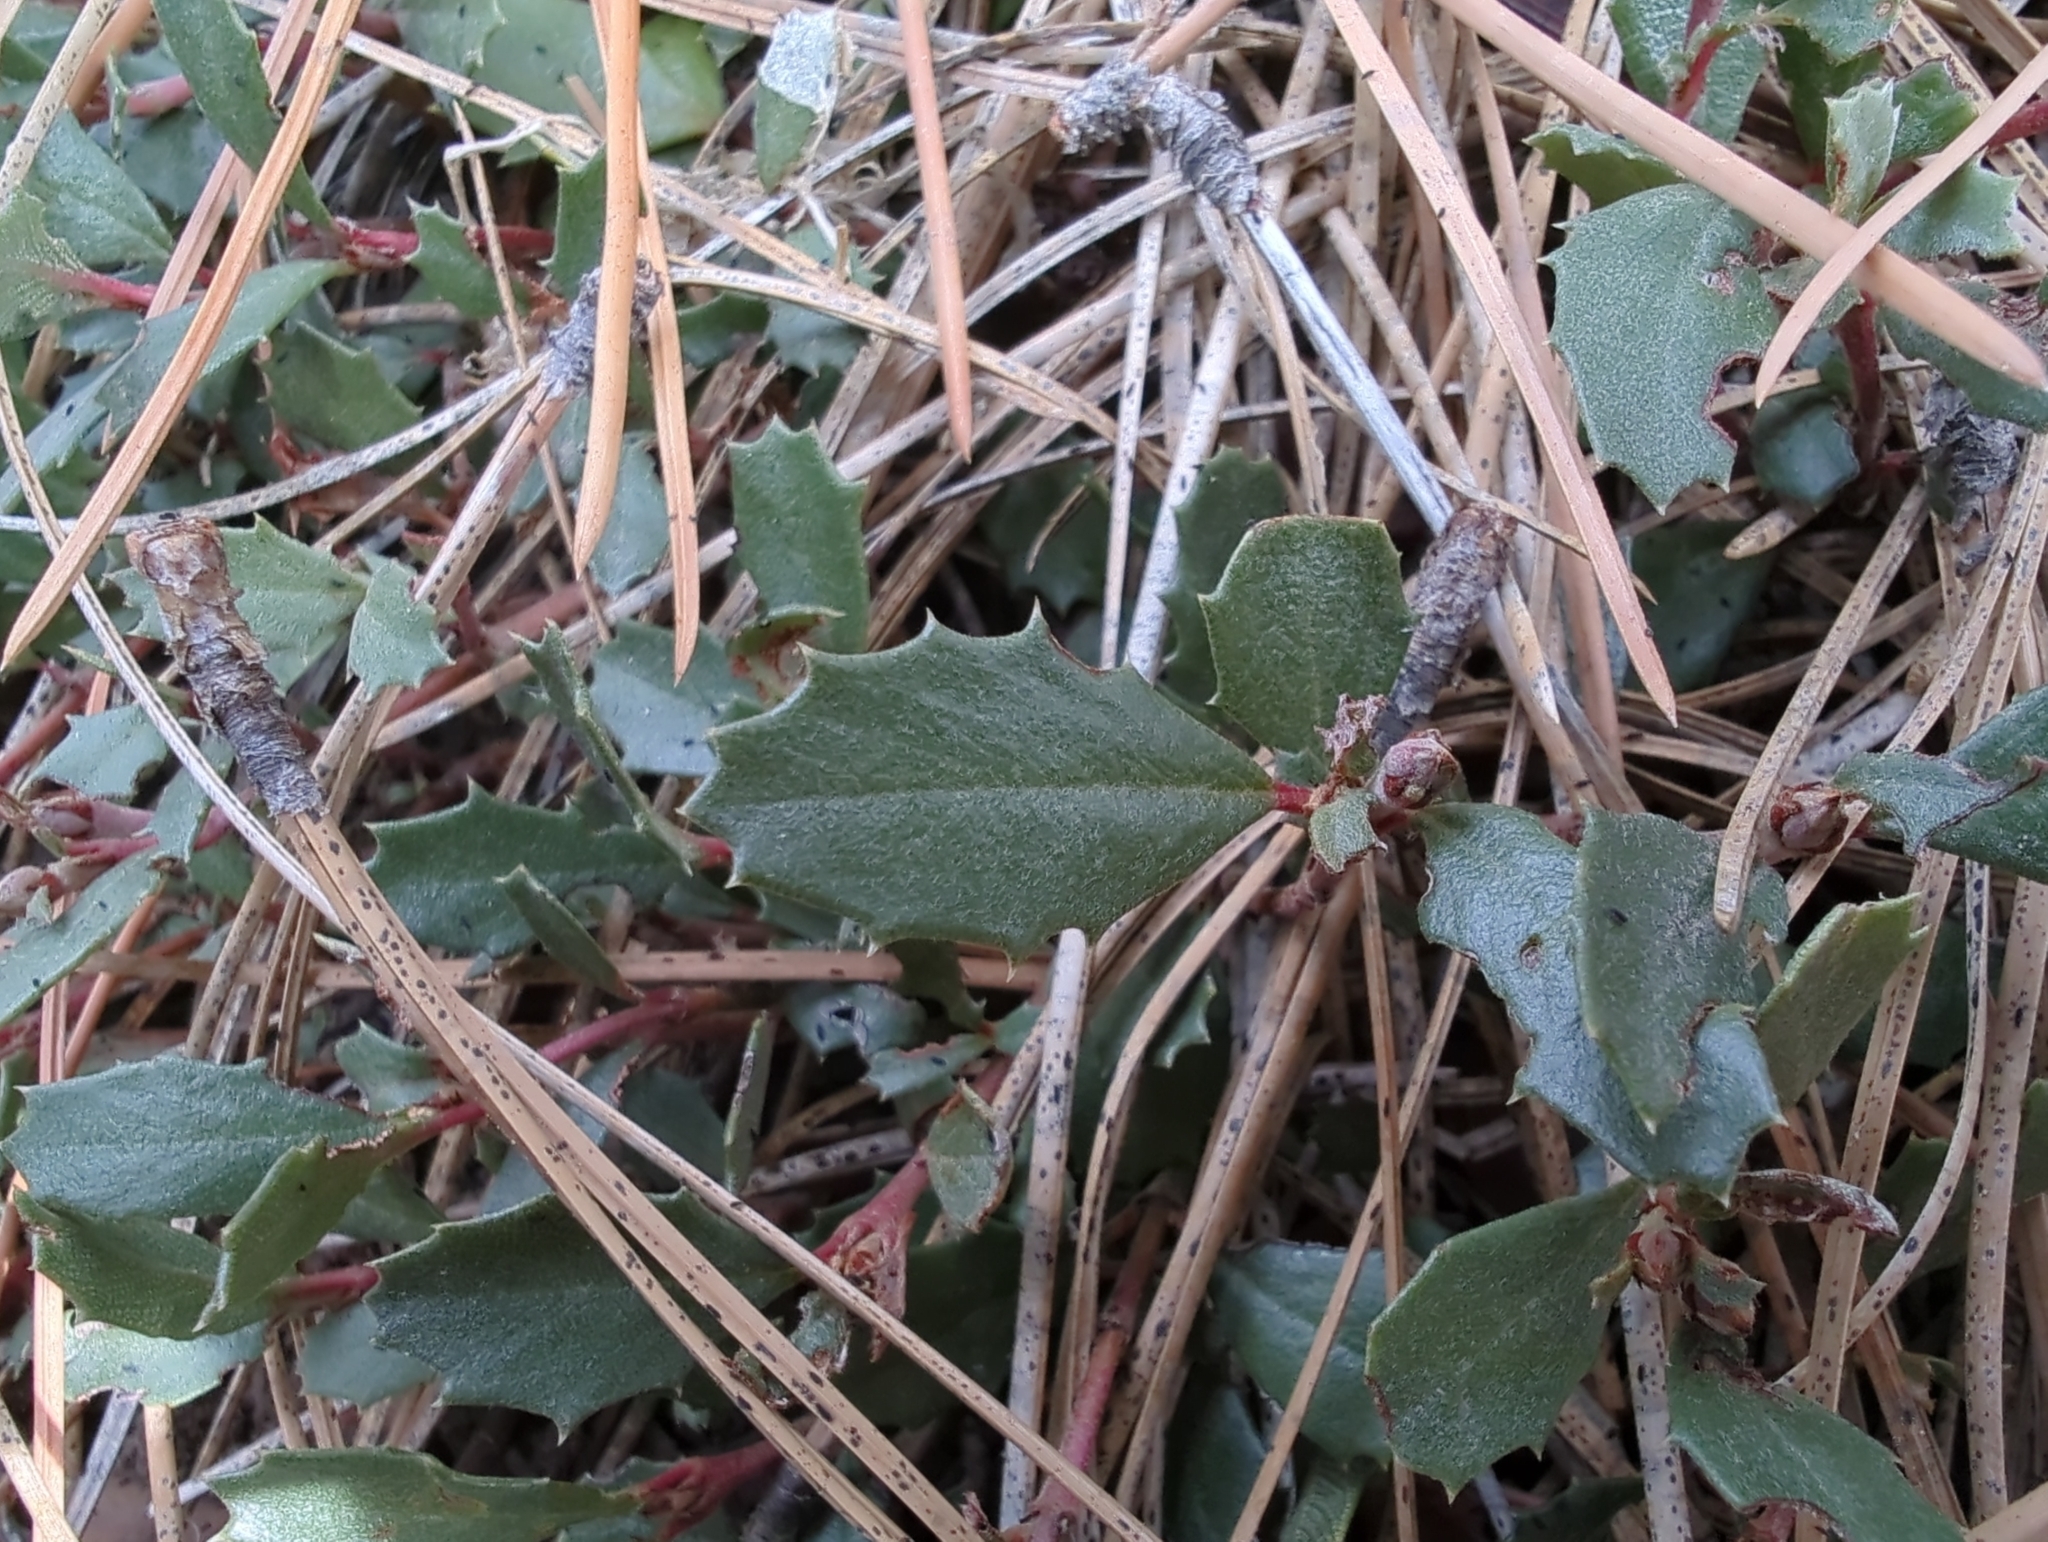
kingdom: Plantae
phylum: Tracheophyta
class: Magnoliopsida
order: Rosales
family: Rhamnaceae
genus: Ceanothus
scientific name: Ceanothus prostratus
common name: Mahala-mat
